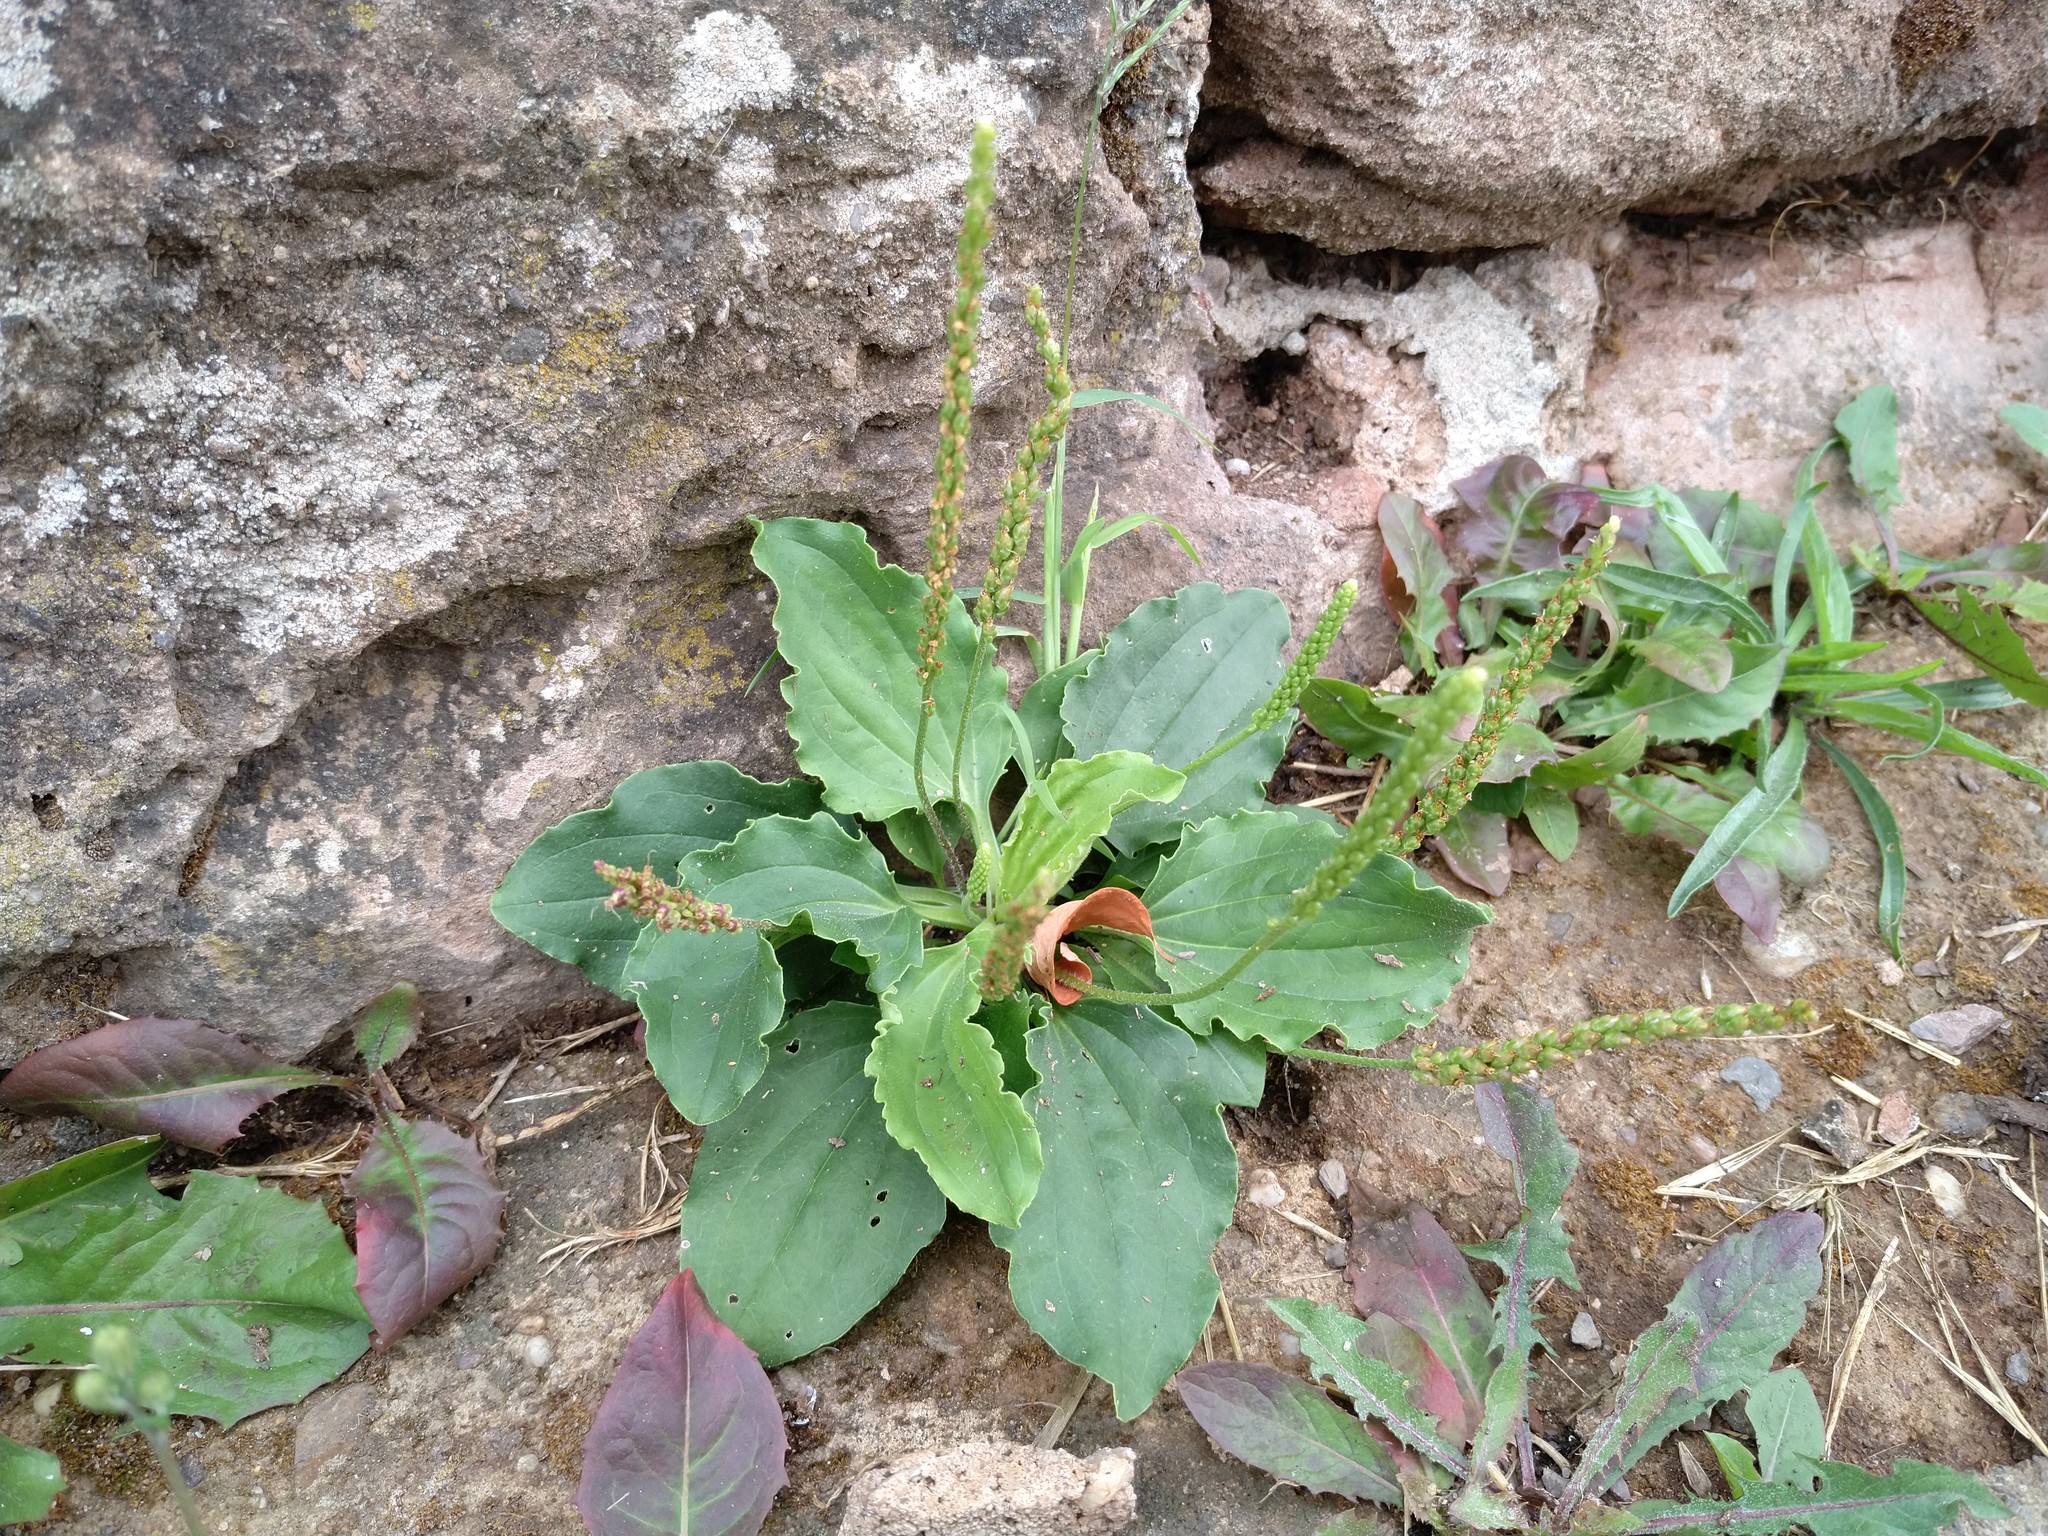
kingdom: Plantae
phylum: Tracheophyta
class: Magnoliopsida
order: Lamiales
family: Plantaginaceae
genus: Plantago
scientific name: Plantago major
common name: Common plantain
